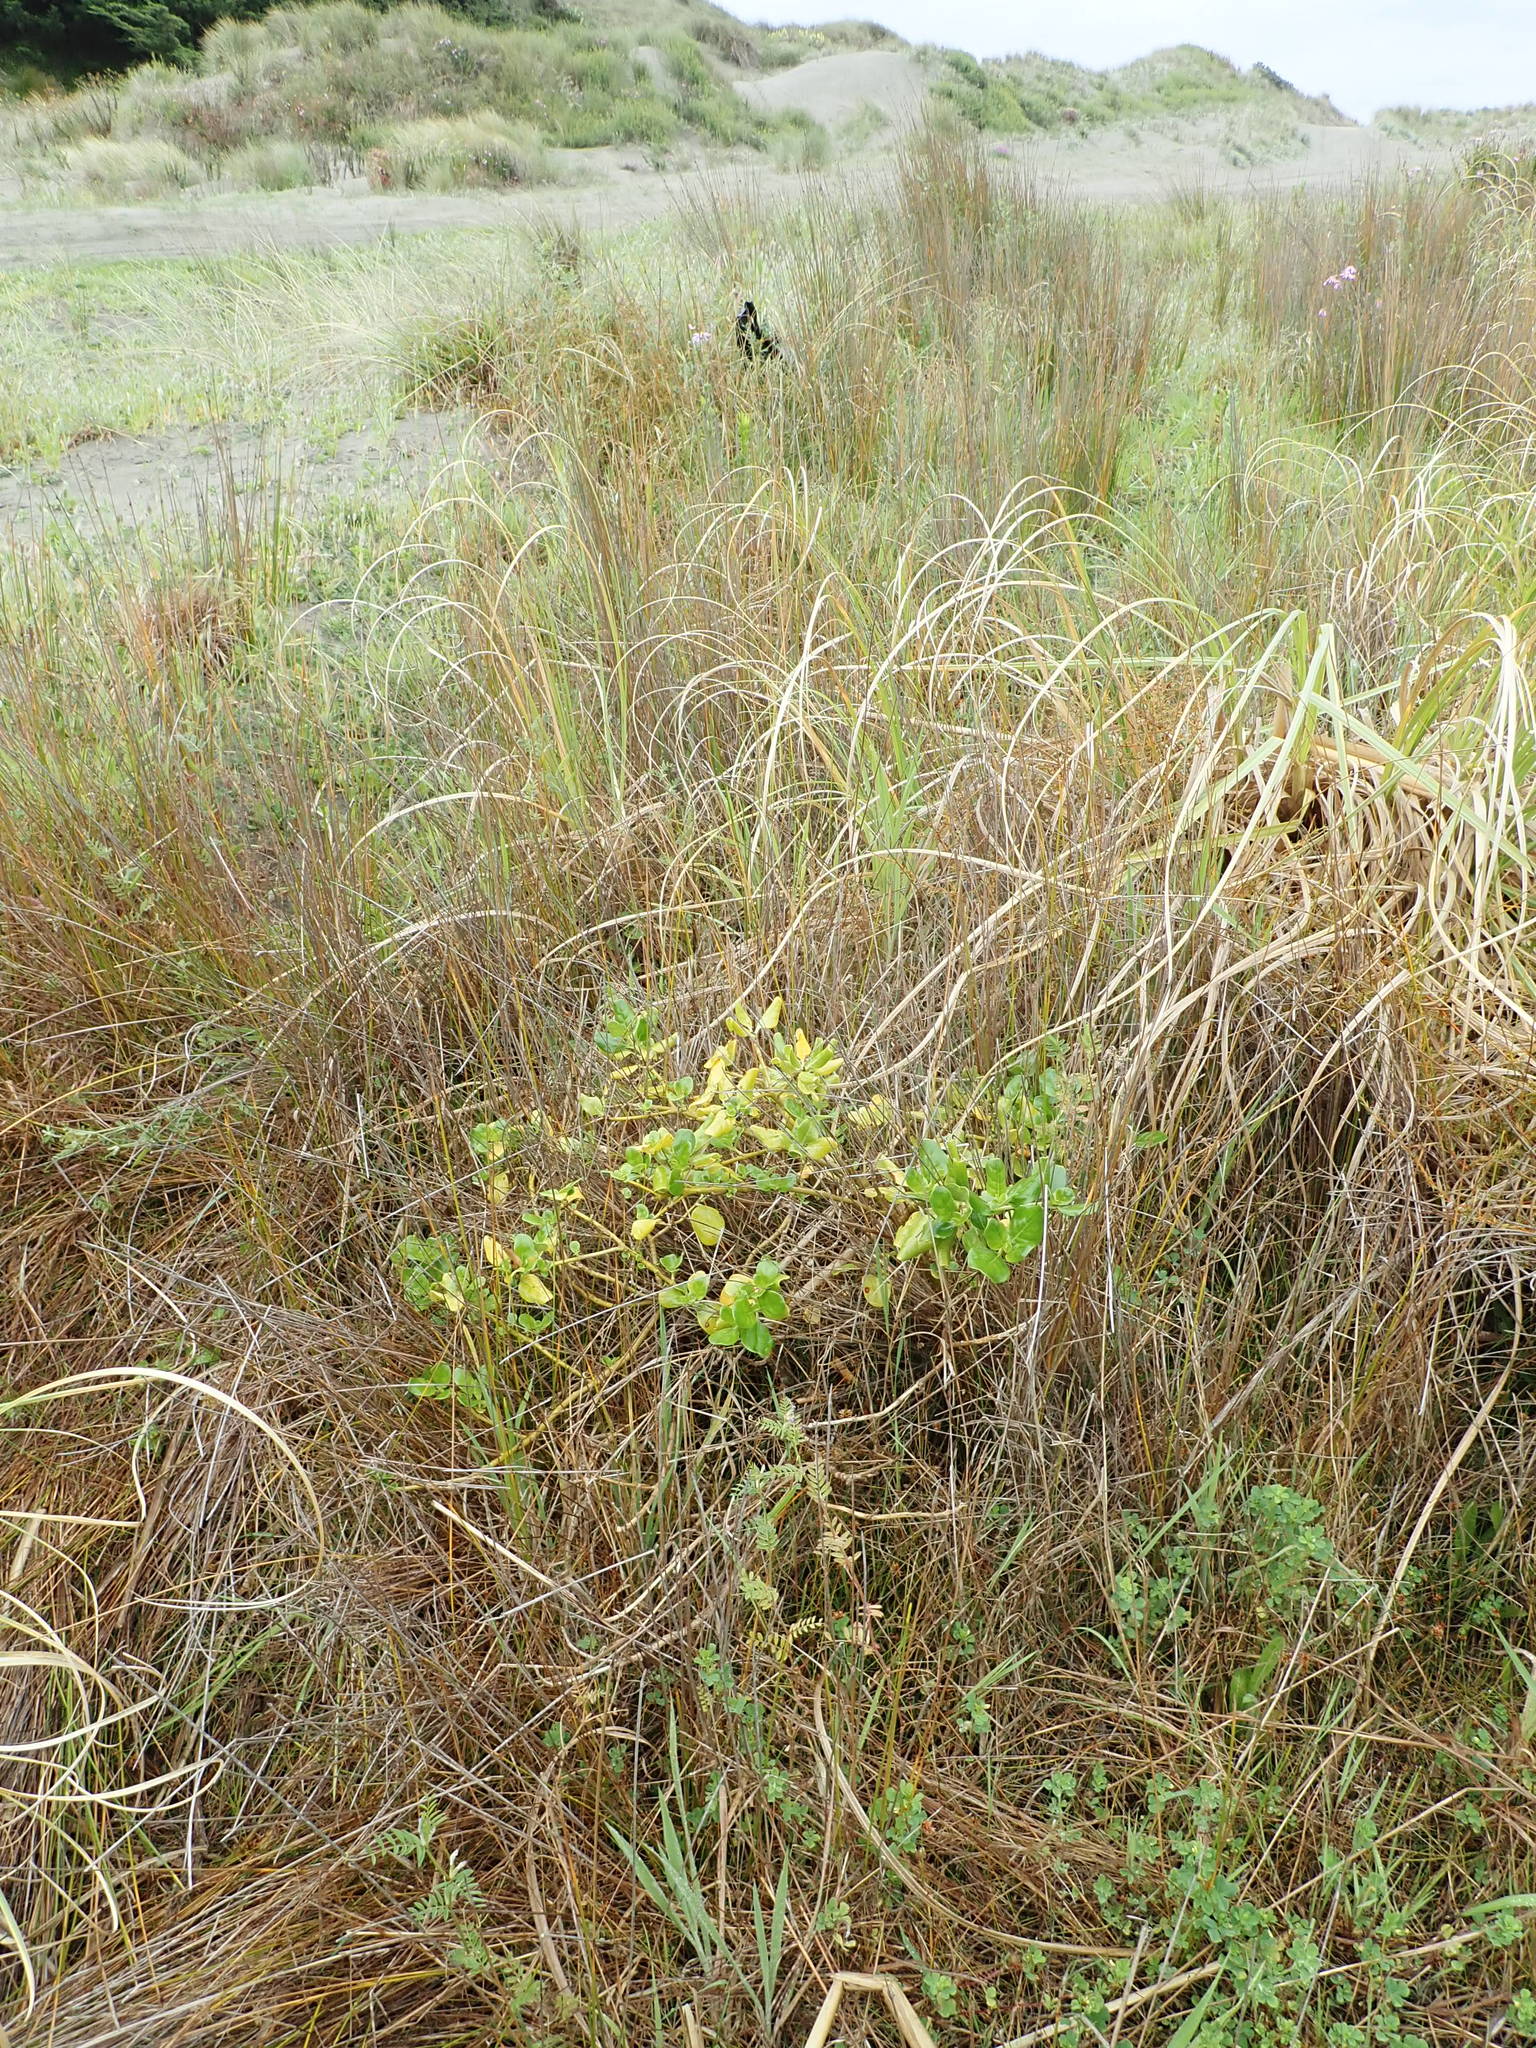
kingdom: Plantae
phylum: Tracheophyta
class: Magnoliopsida
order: Gentianales
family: Rubiaceae
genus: Coprosma
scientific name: Coprosma repens
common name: Tree bedstraw
